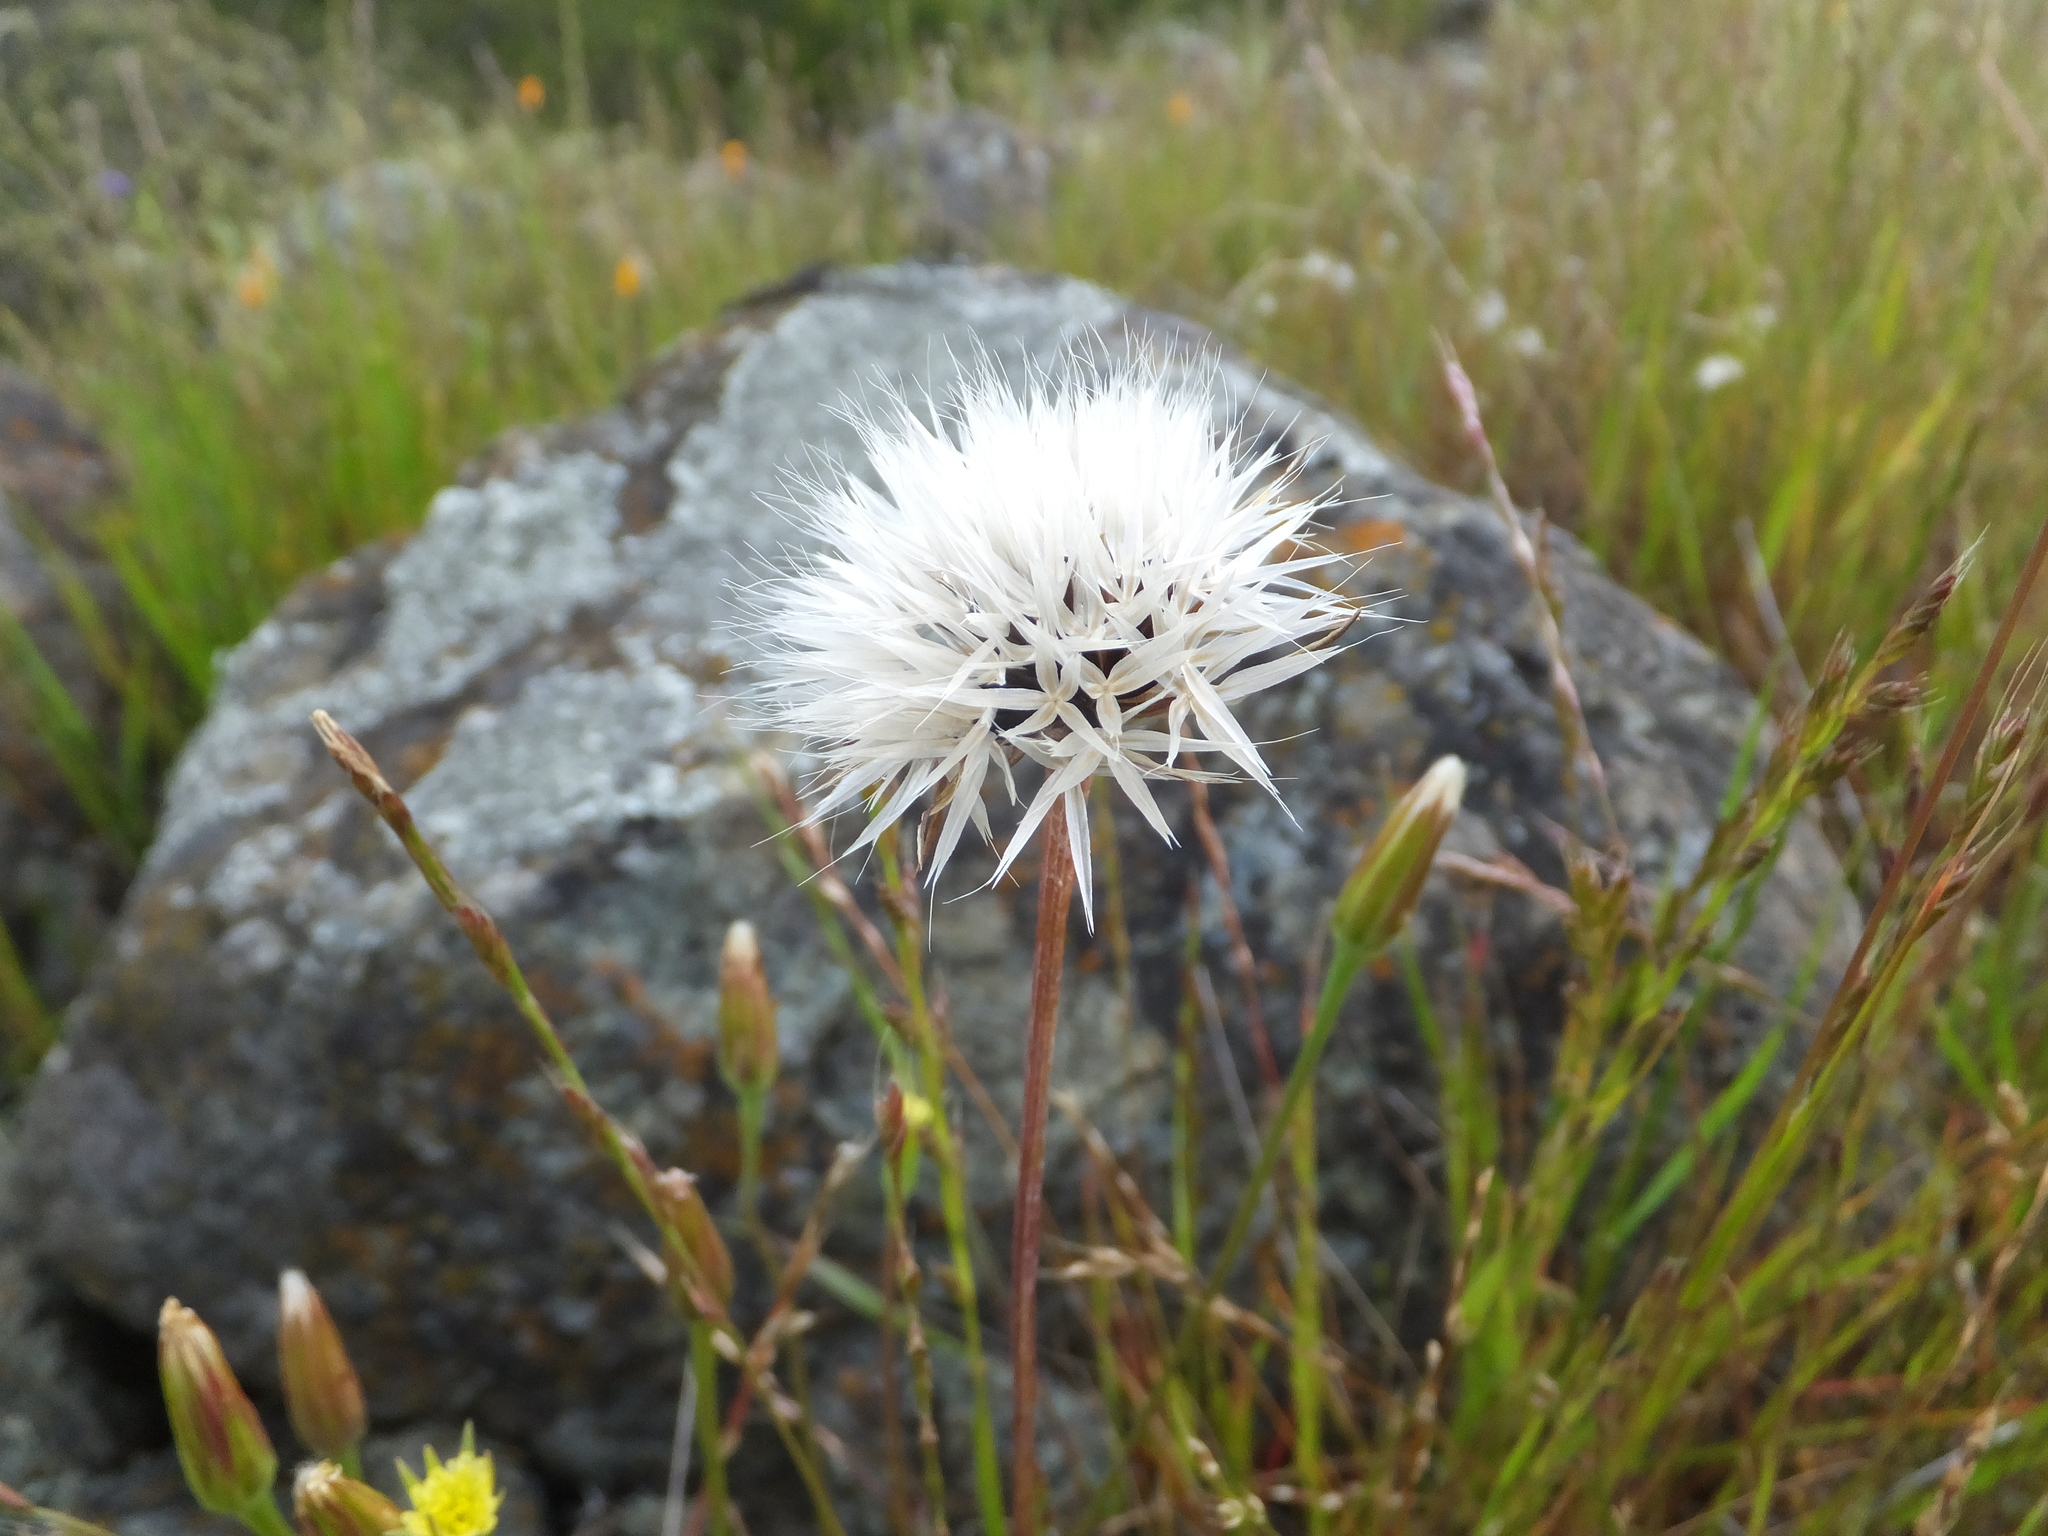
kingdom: Plantae
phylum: Tracheophyta
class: Magnoliopsida
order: Asterales
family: Asteraceae
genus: Microseris
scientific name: Microseris lindleyi
